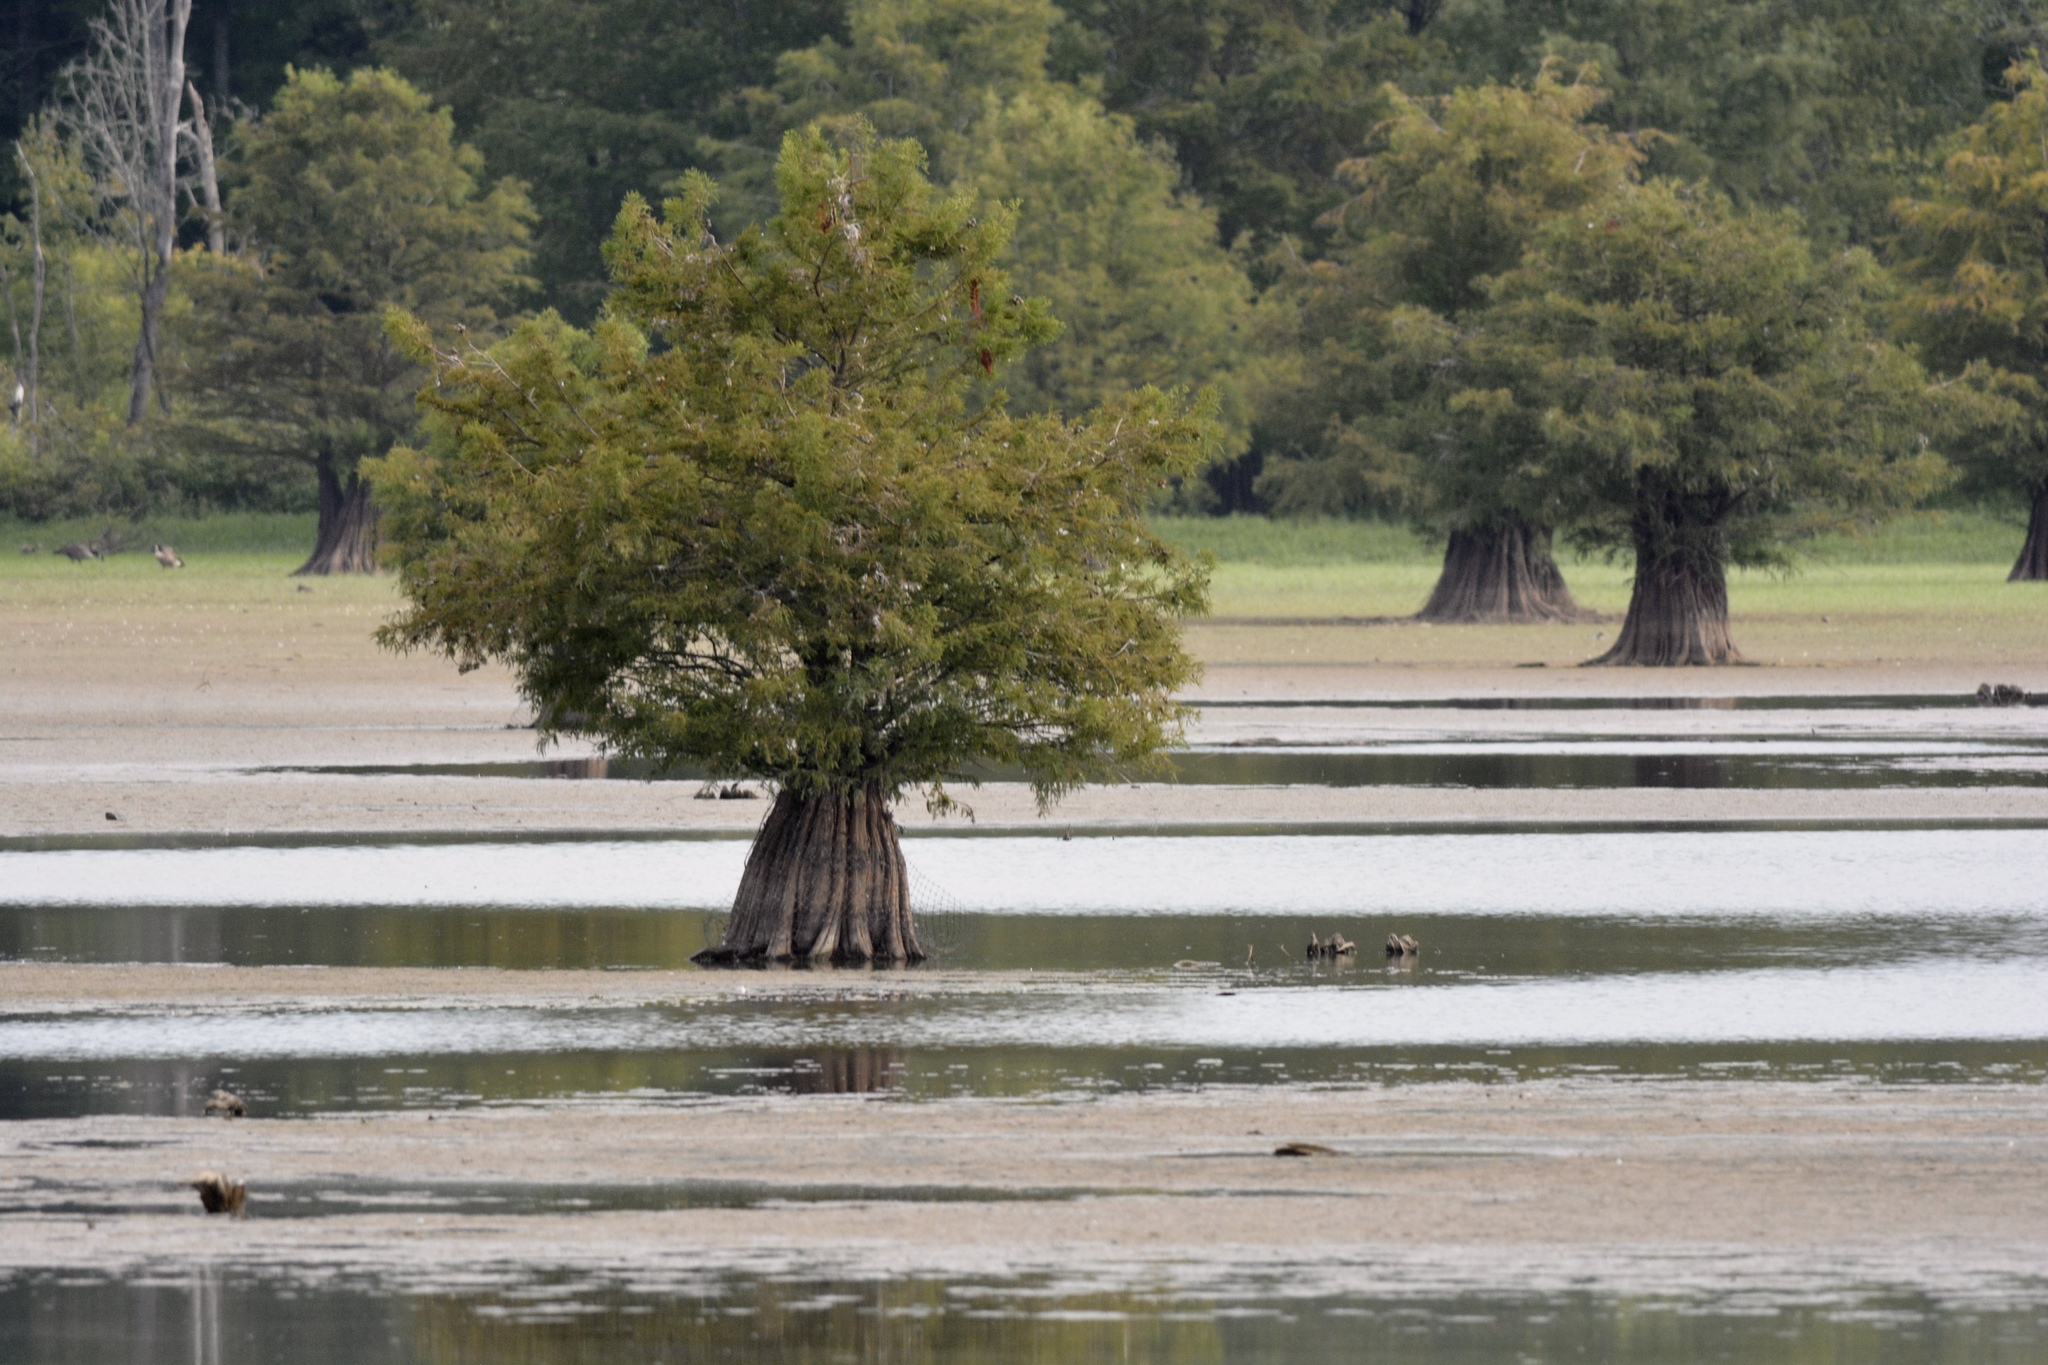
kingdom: Plantae
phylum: Tracheophyta
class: Pinopsida
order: Pinales
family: Cupressaceae
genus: Taxodium
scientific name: Taxodium distichum
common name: Bald cypress
